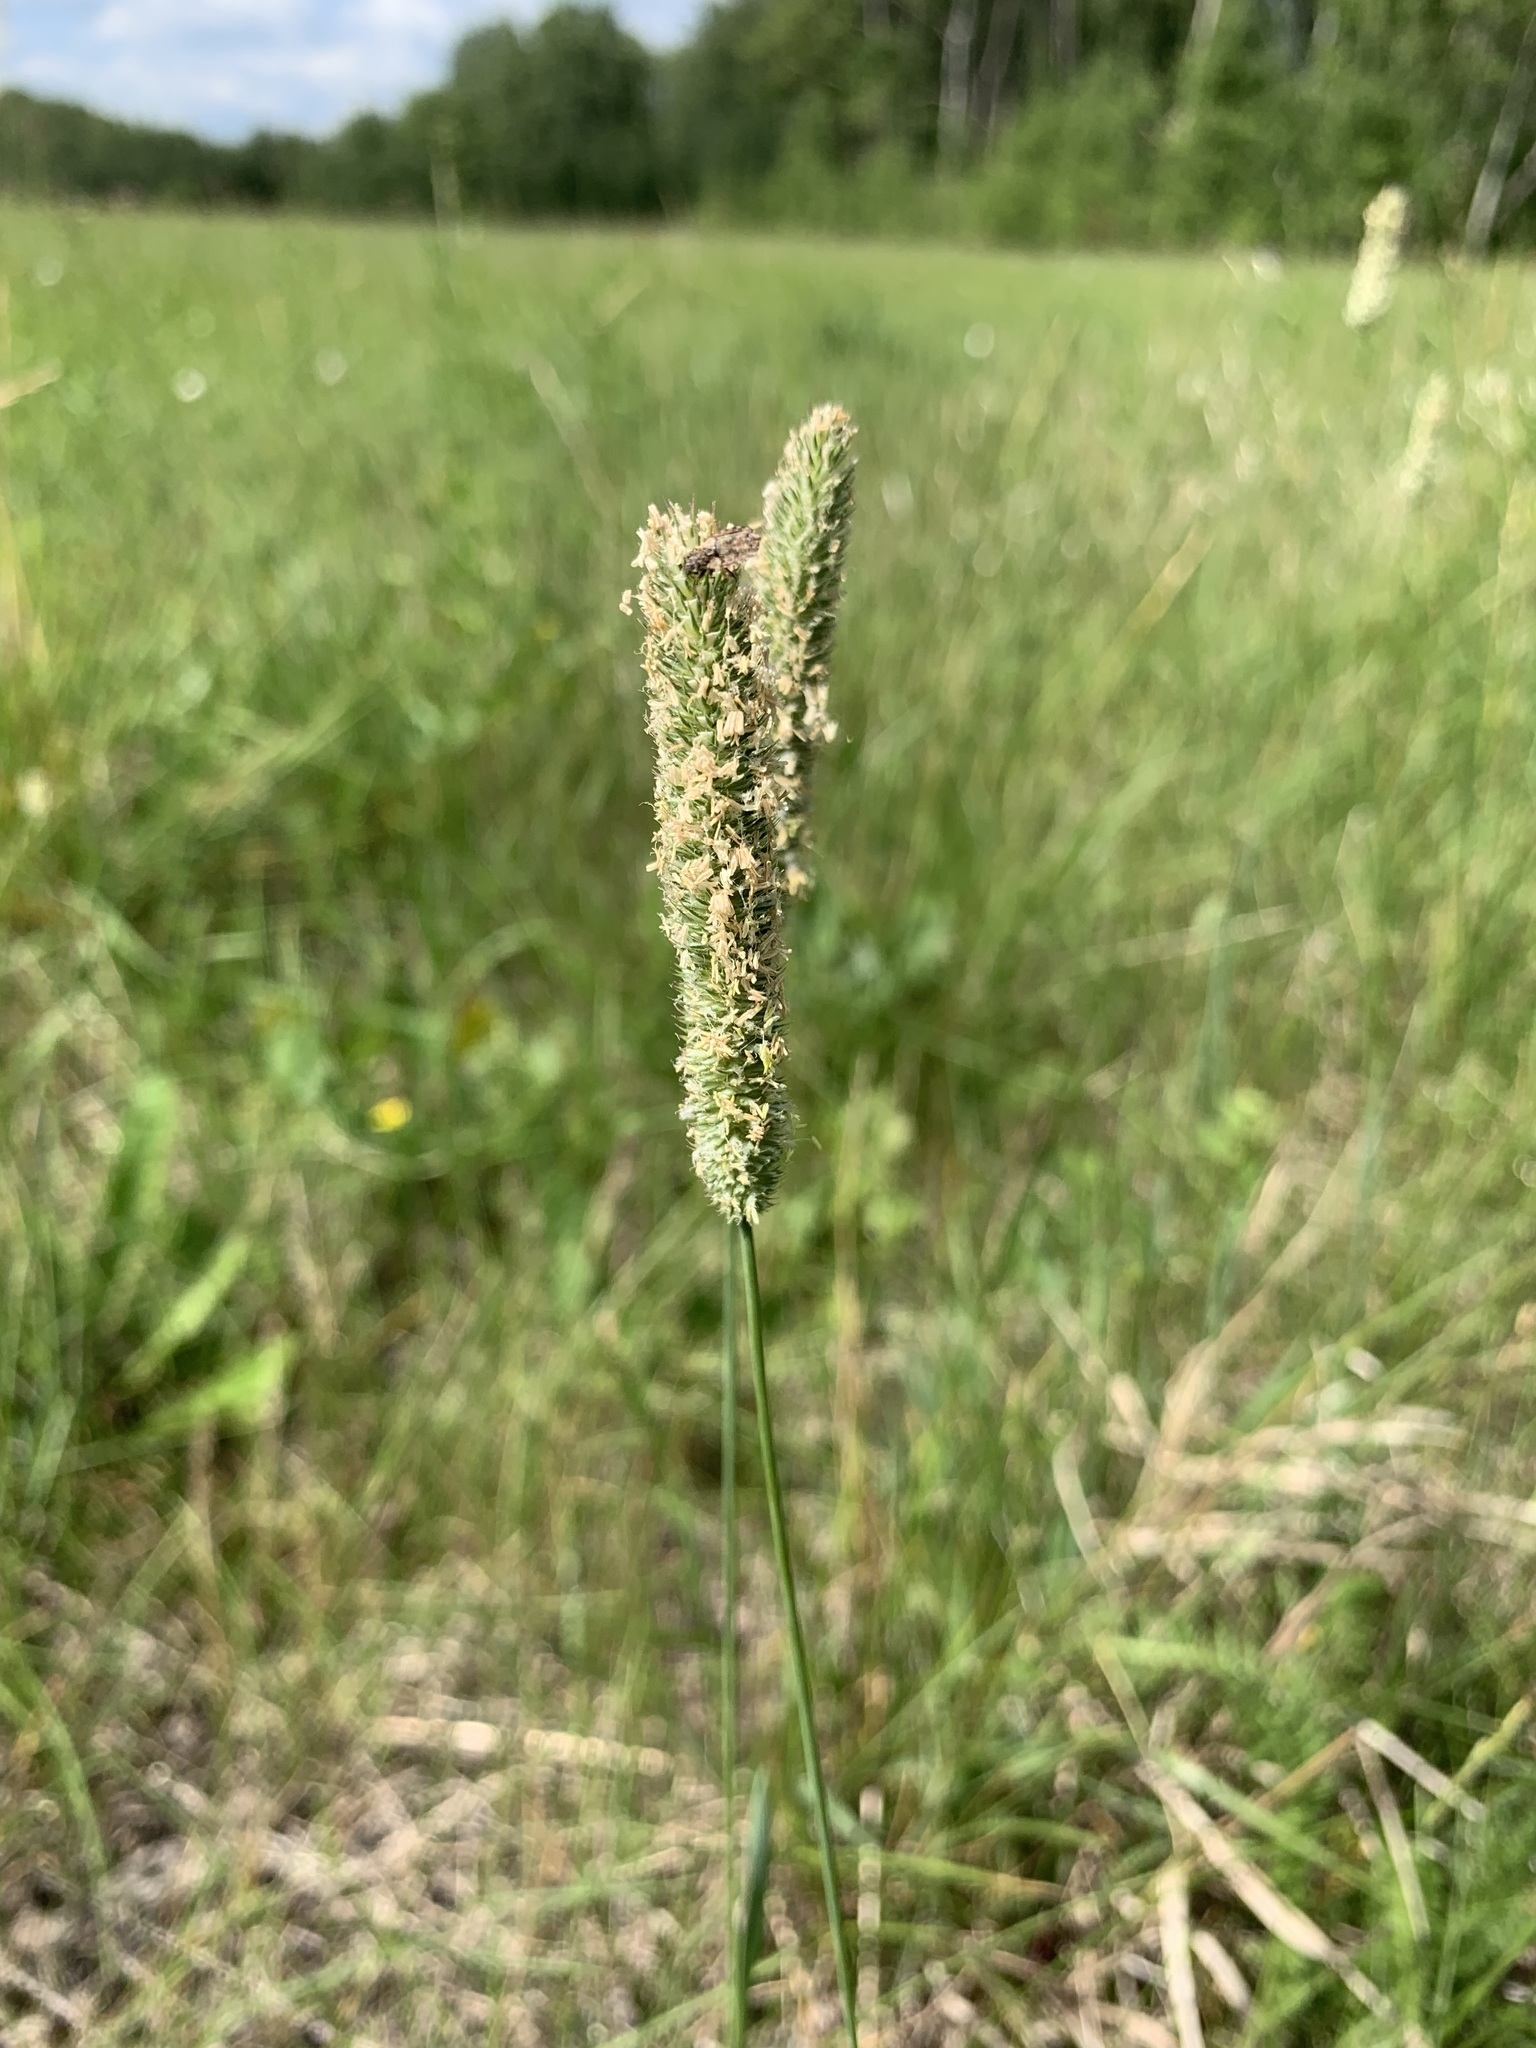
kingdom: Plantae
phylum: Tracheophyta
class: Liliopsida
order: Poales
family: Poaceae
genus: Phleum
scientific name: Phleum pratense
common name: Timothy grass
